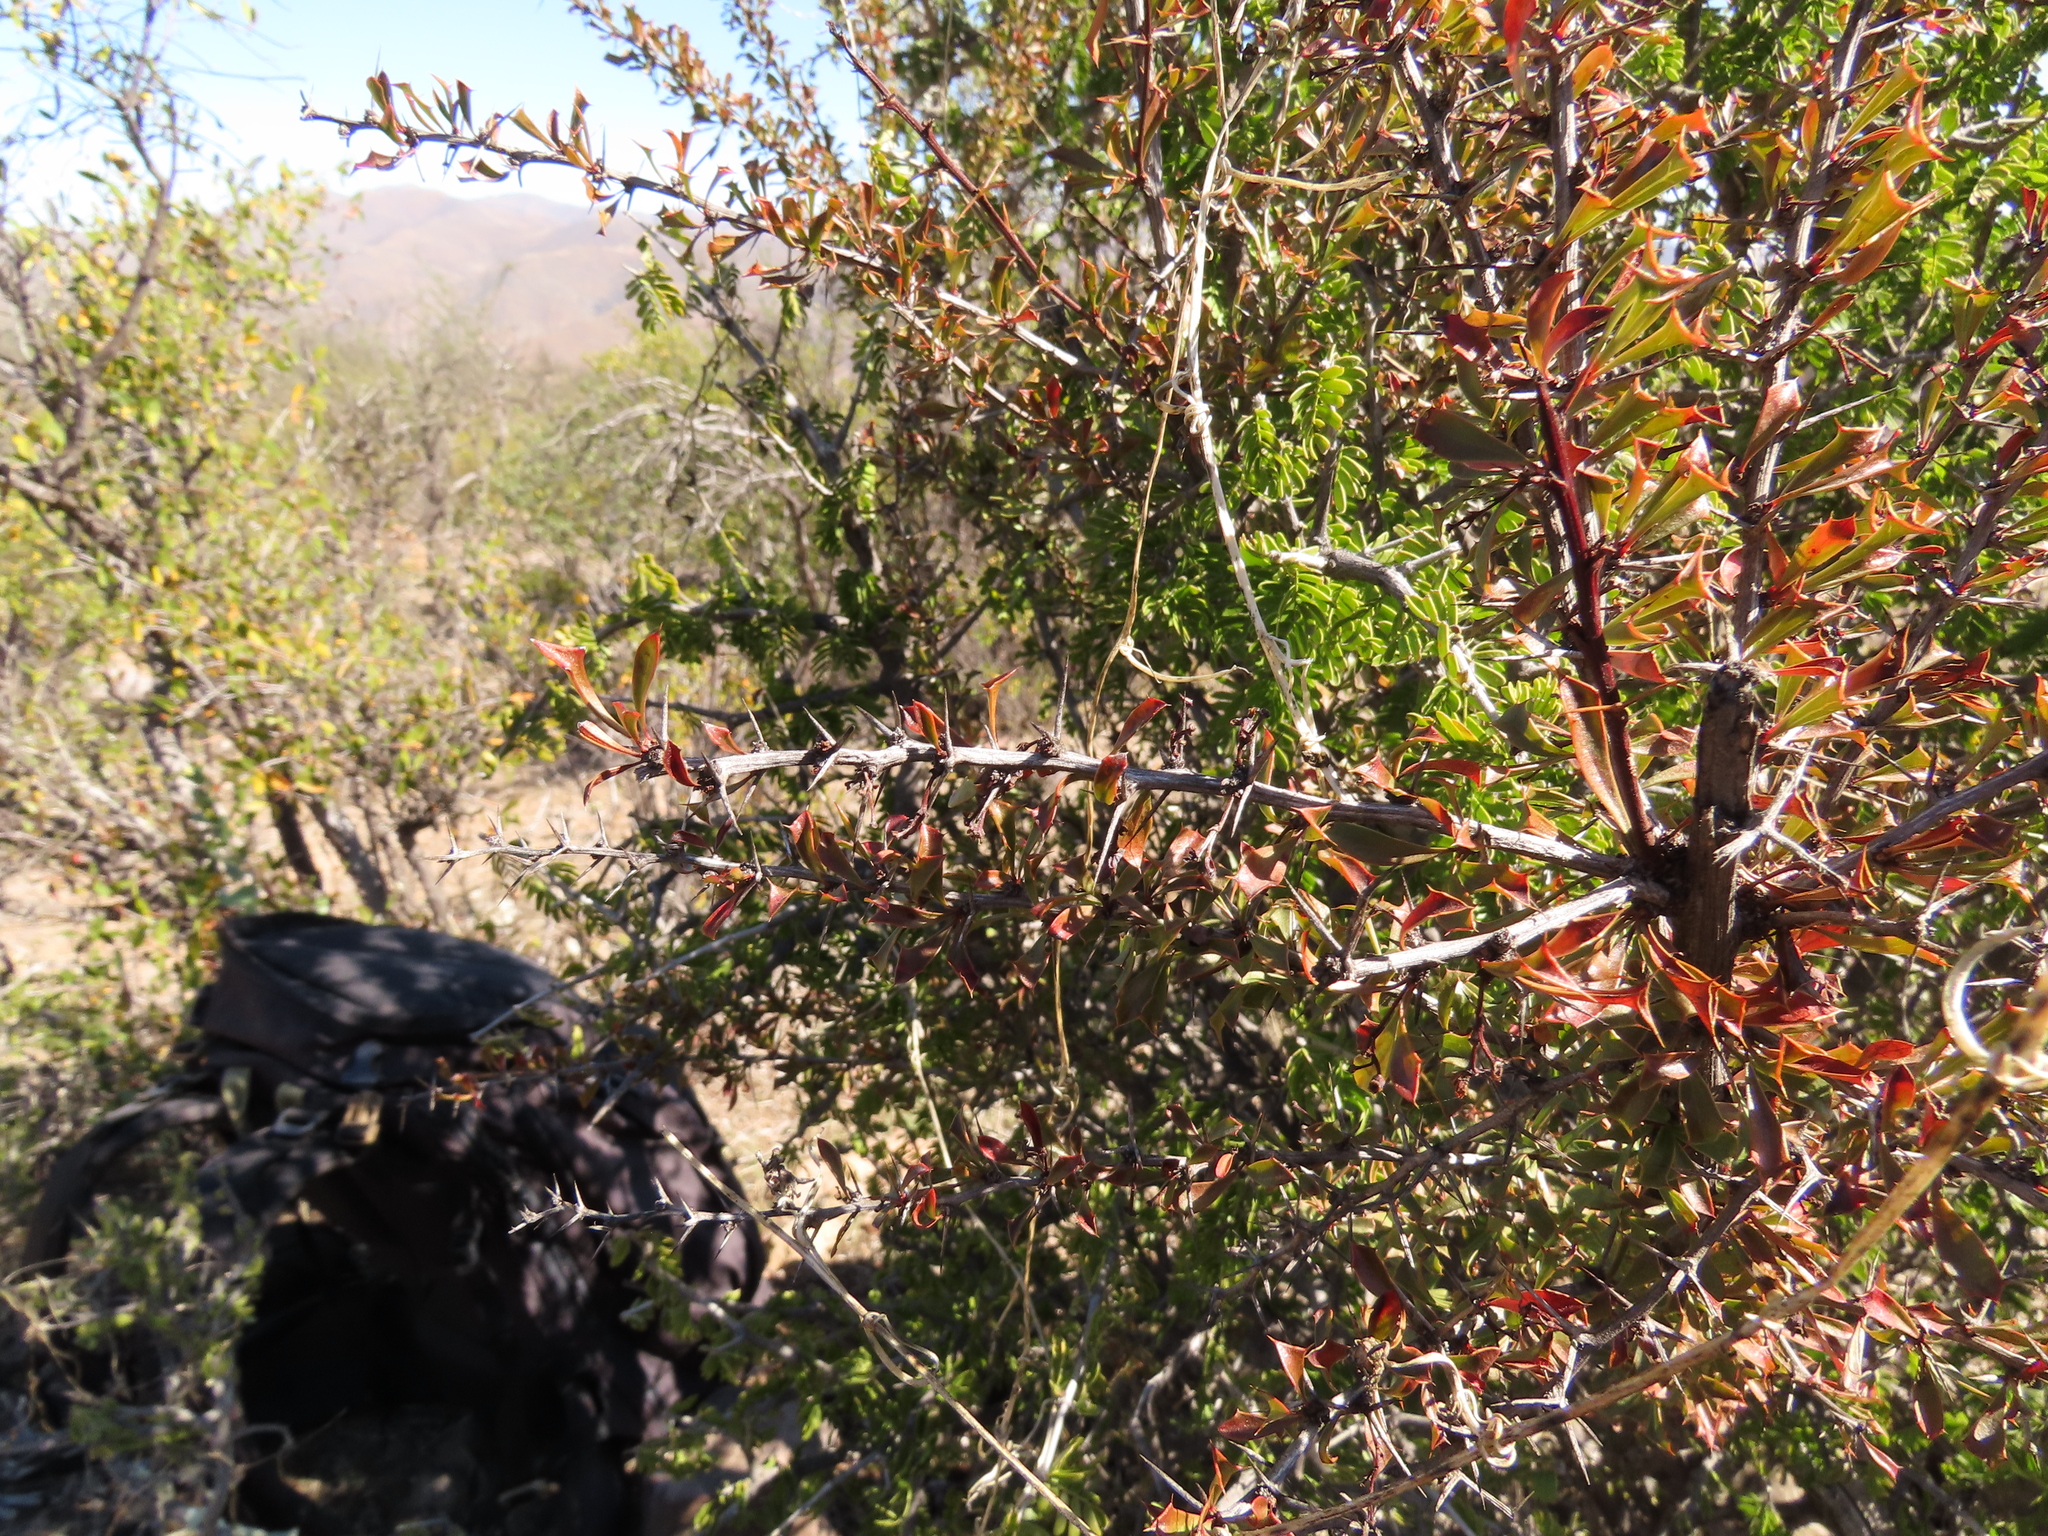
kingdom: Plantae
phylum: Tracheophyta
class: Magnoliopsida
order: Ranunculales
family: Berberidaceae
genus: Berberis
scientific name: Berberis glomerata
